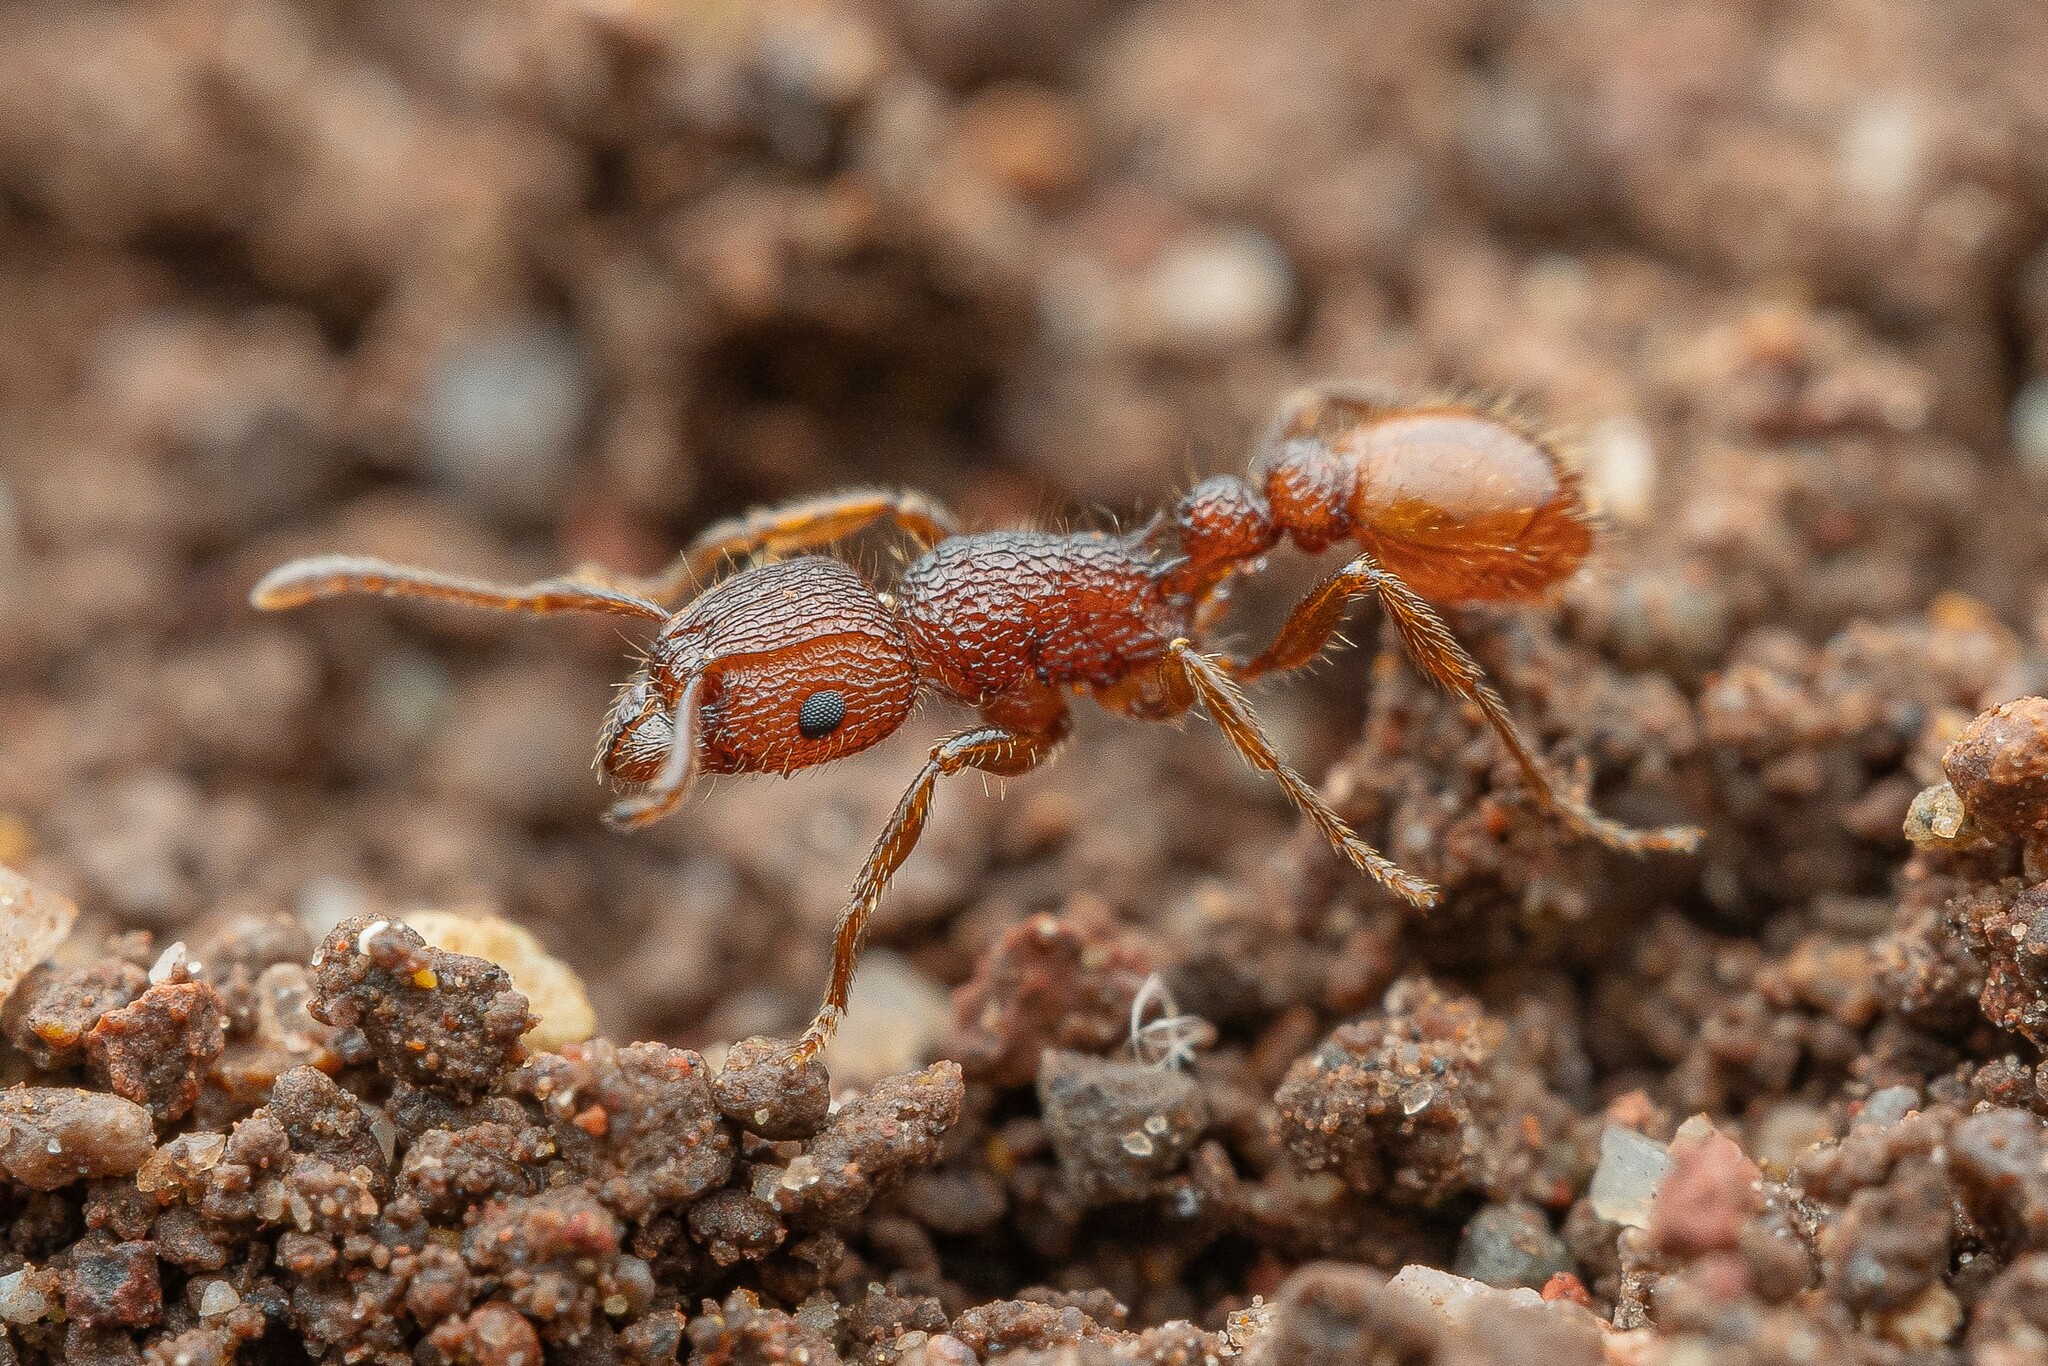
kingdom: Animalia
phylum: Arthropoda
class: Insecta
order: Hymenoptera
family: Formicidae
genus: Tetramorium
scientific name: Tetramorium spinosum
